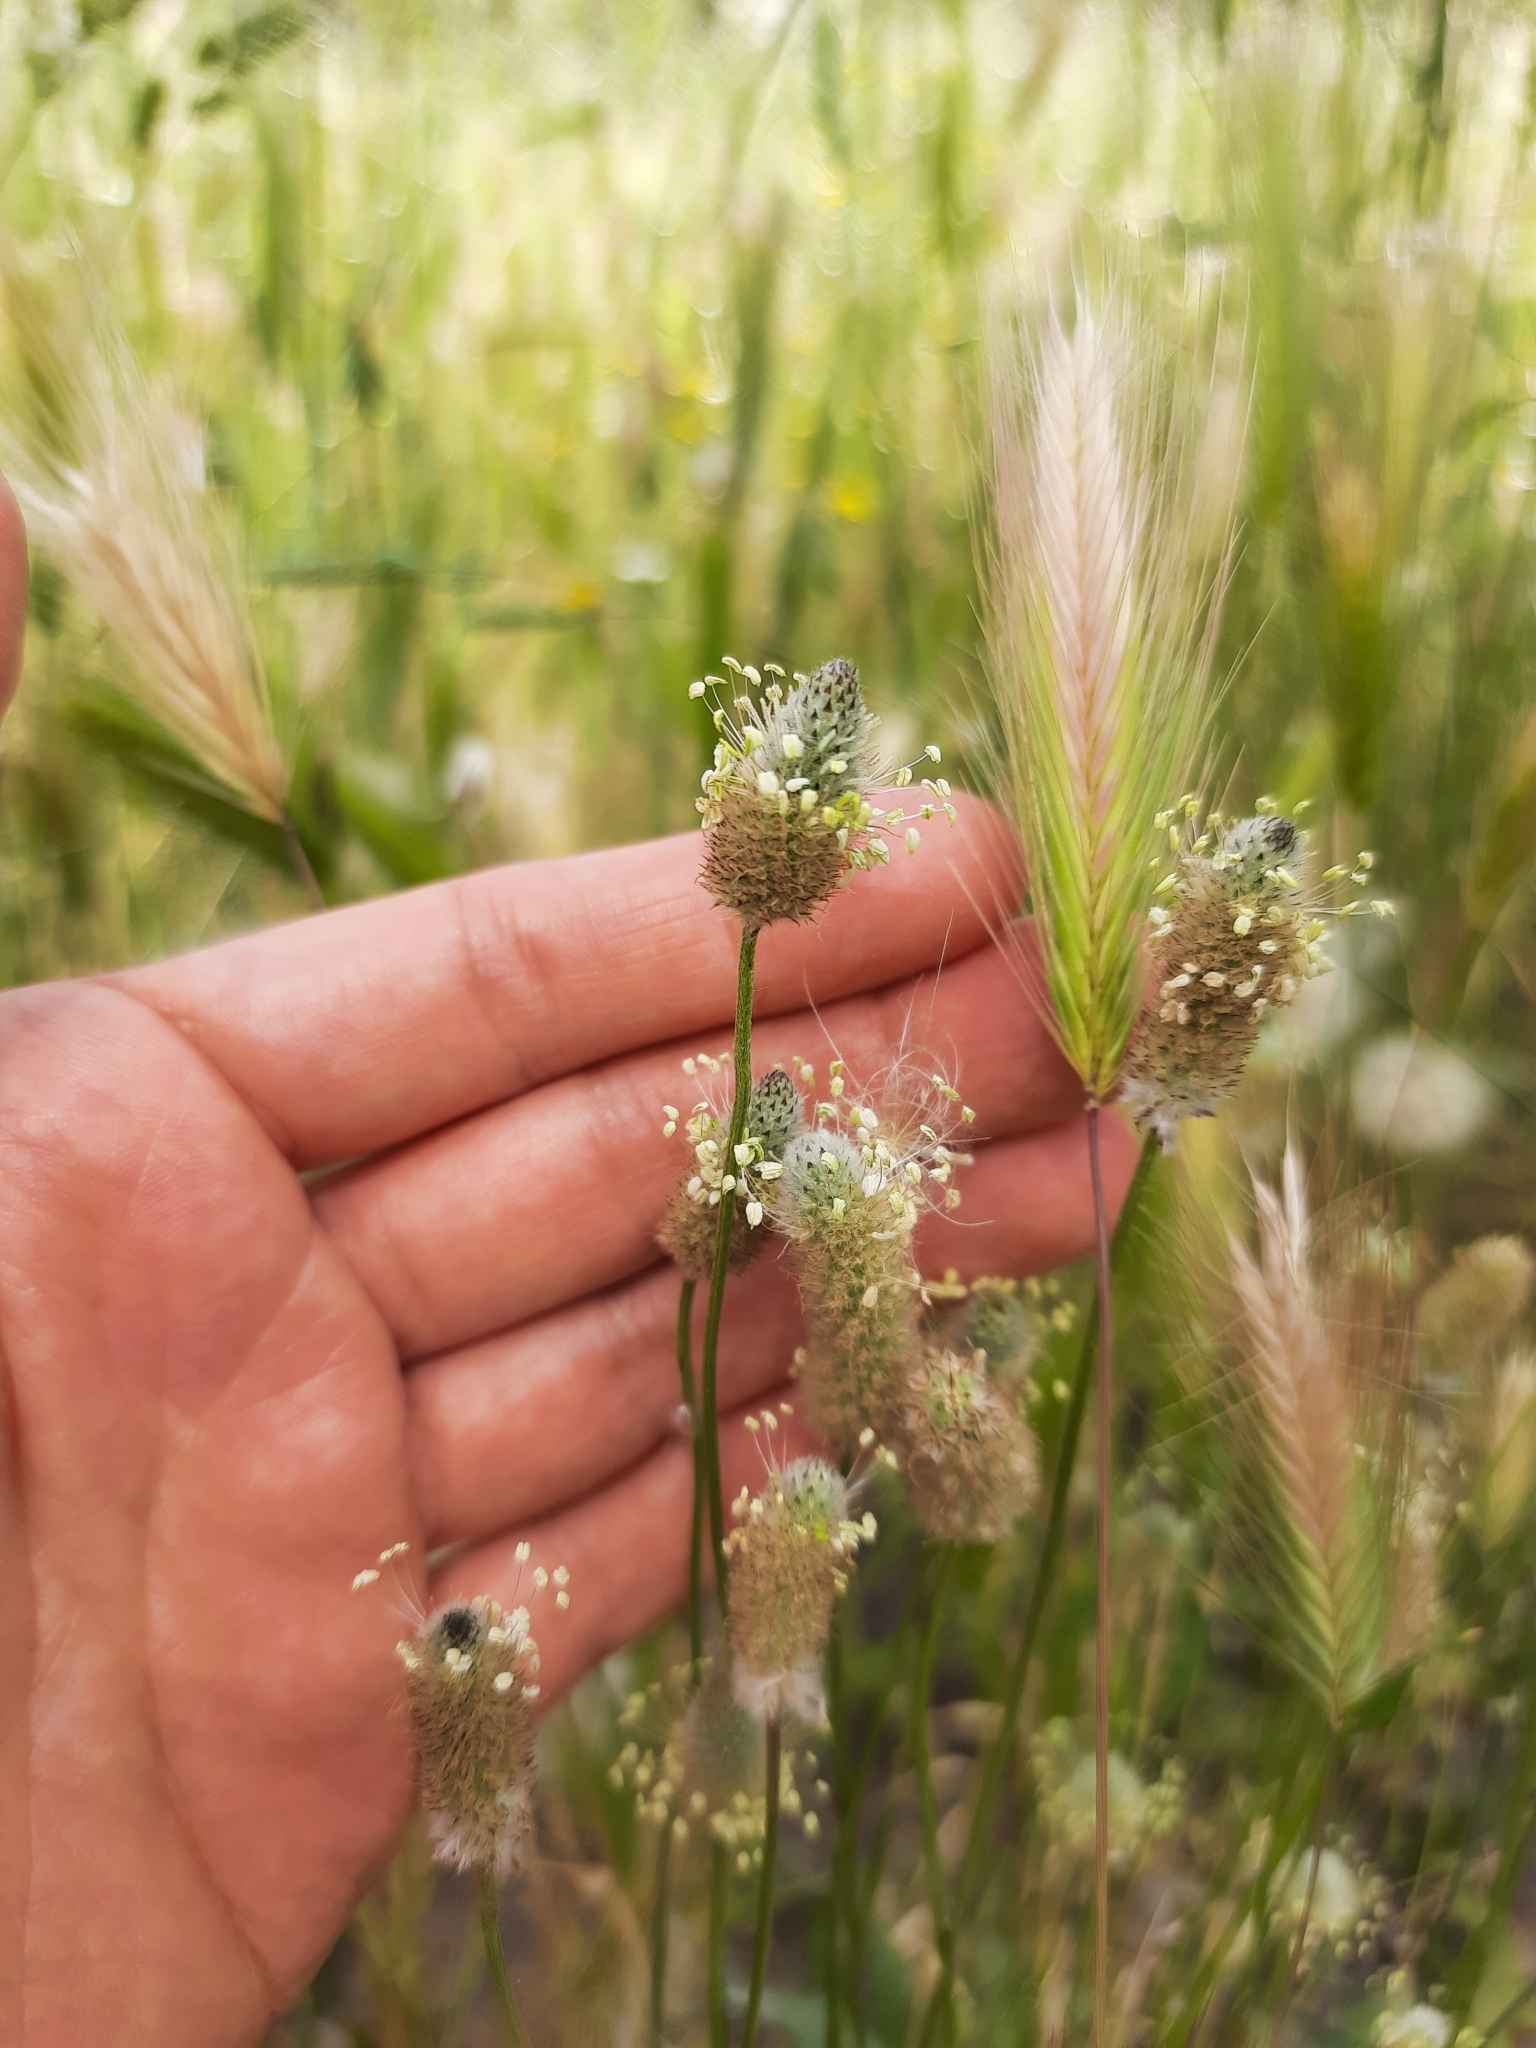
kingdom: Plantae
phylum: Tracheophyta
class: Magnoliopsida
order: Lamiales
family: Plantaginaceae
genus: Plantago
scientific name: Plantago lagopus
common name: Hare-foot plantain
